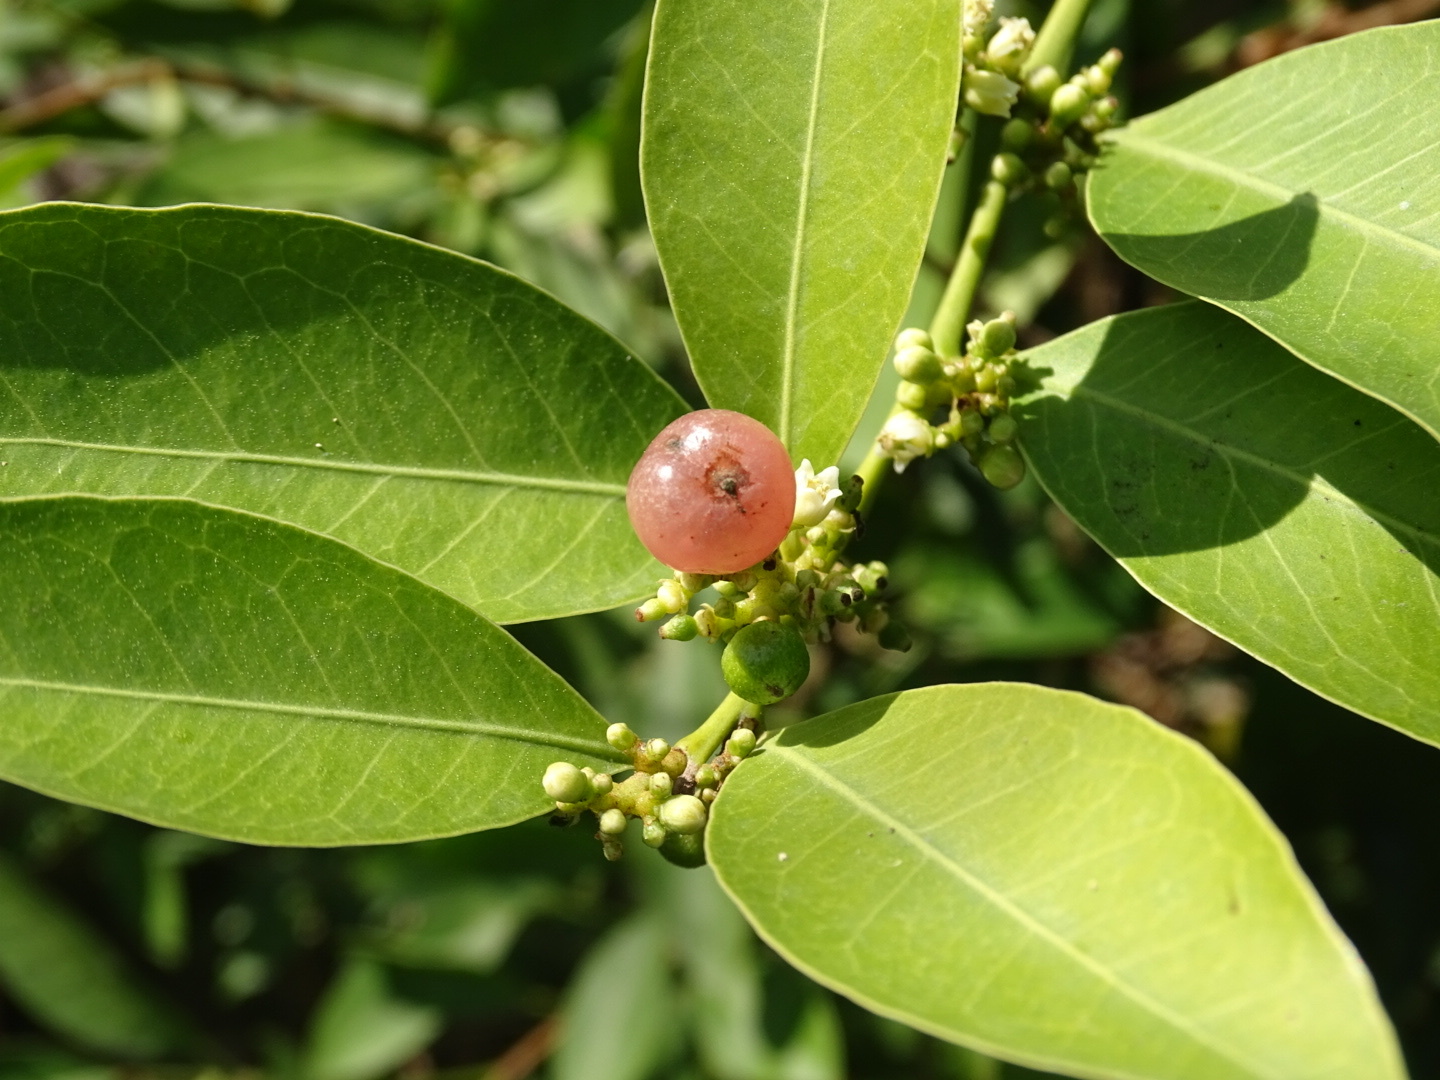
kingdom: Plantae
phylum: Tracheophyta
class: Magnoliopsida
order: Sapindales
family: Rutaceae
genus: Glycosmis
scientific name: Glycosmis parviflora
